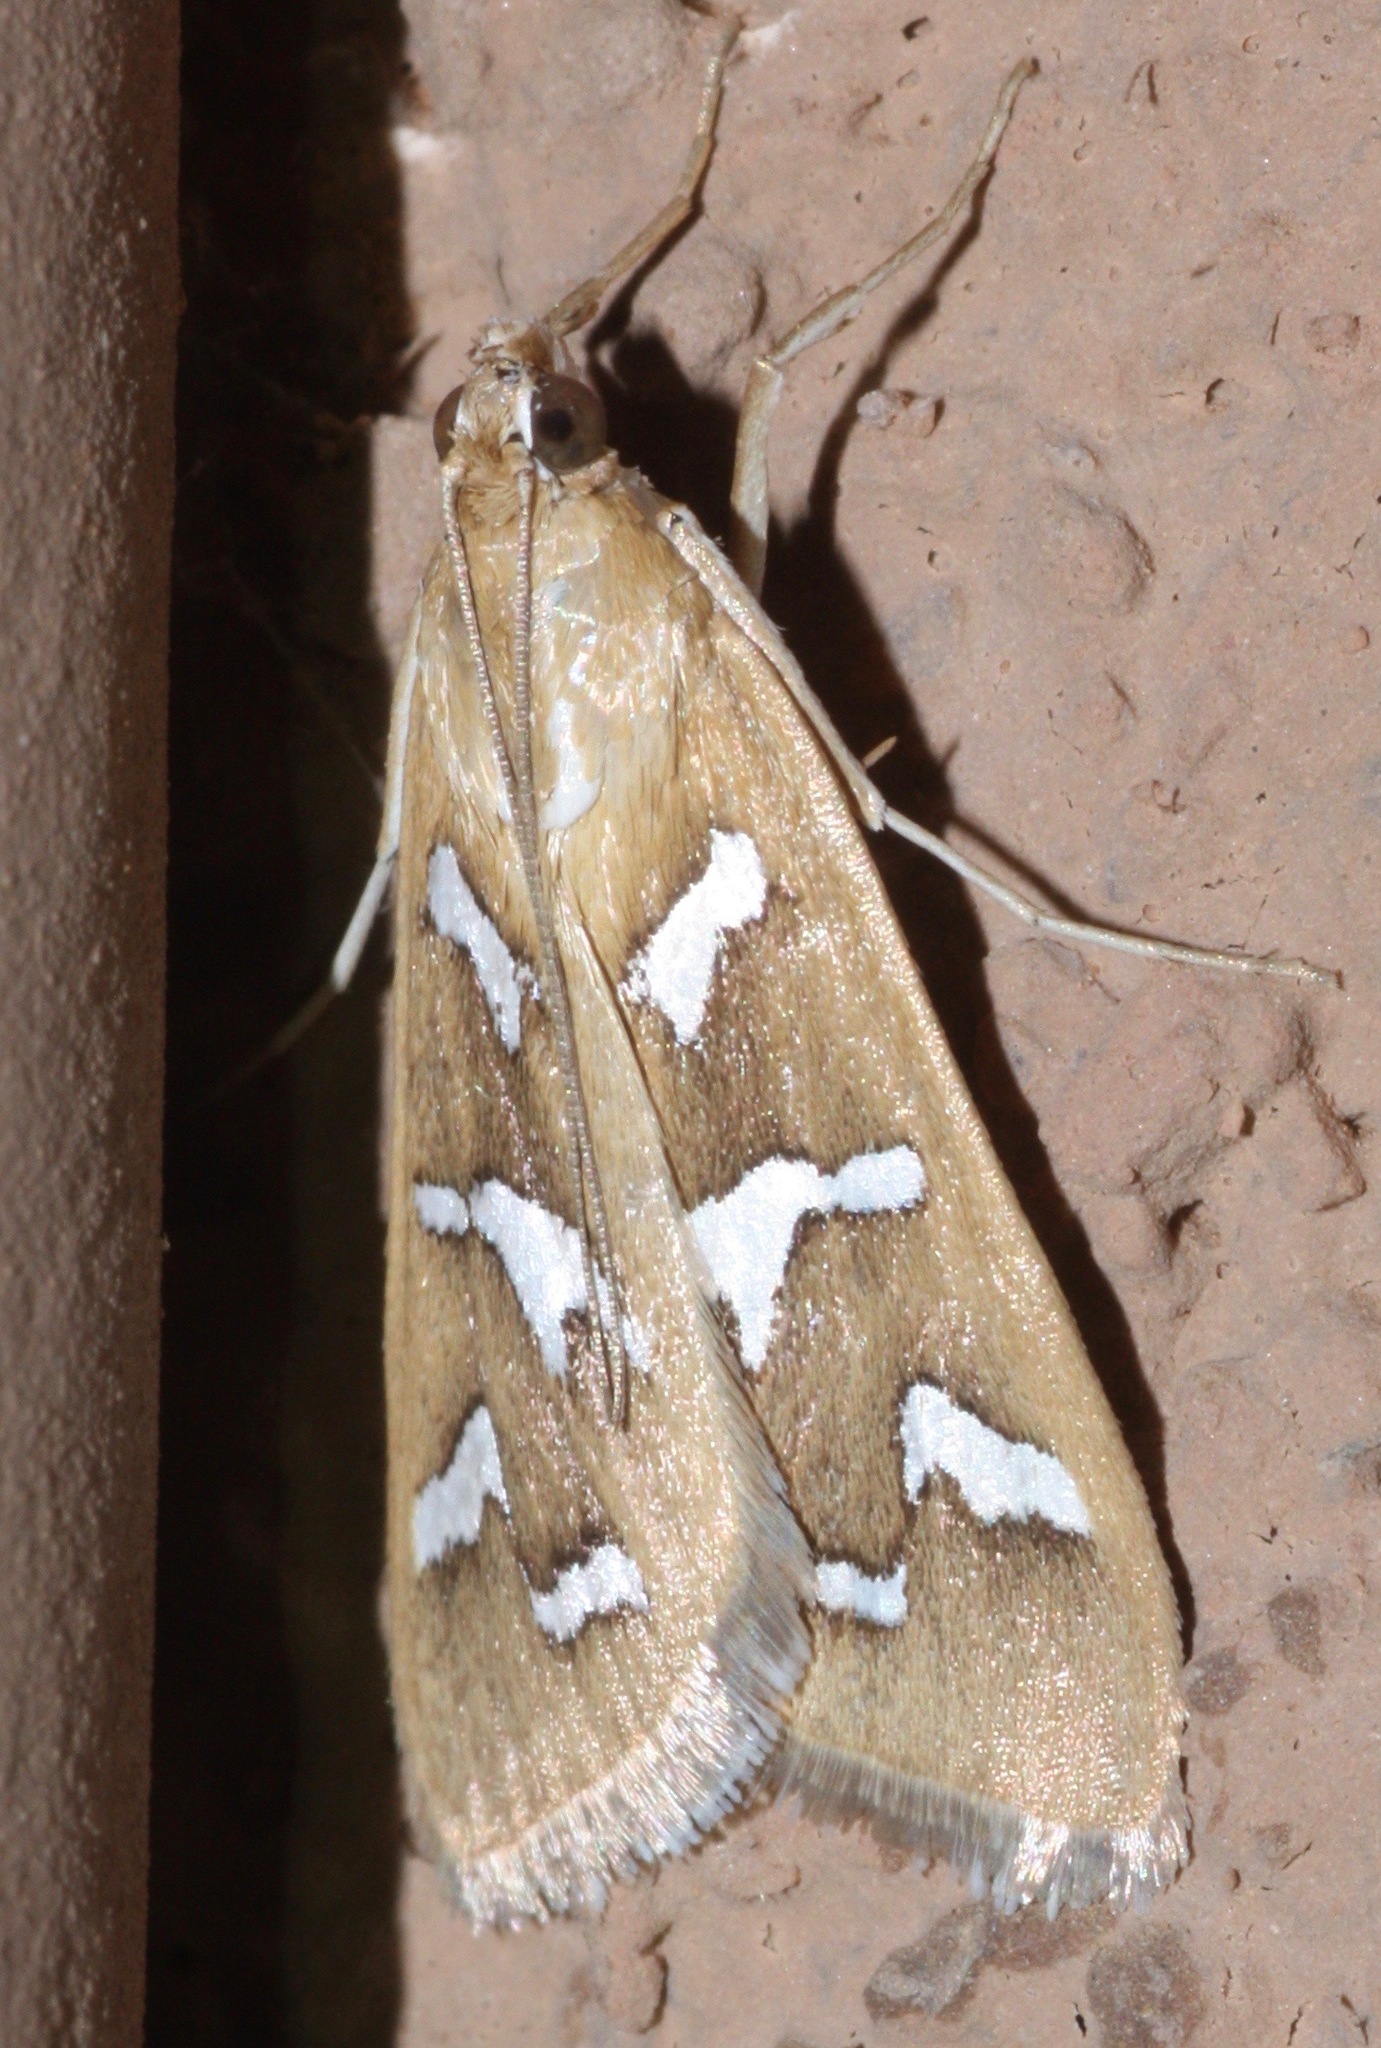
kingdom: Animalia
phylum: Arthropoda
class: Insecta
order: Lepidoptera
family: Crambidae
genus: Diastictis
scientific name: Diastictis fracturalis
